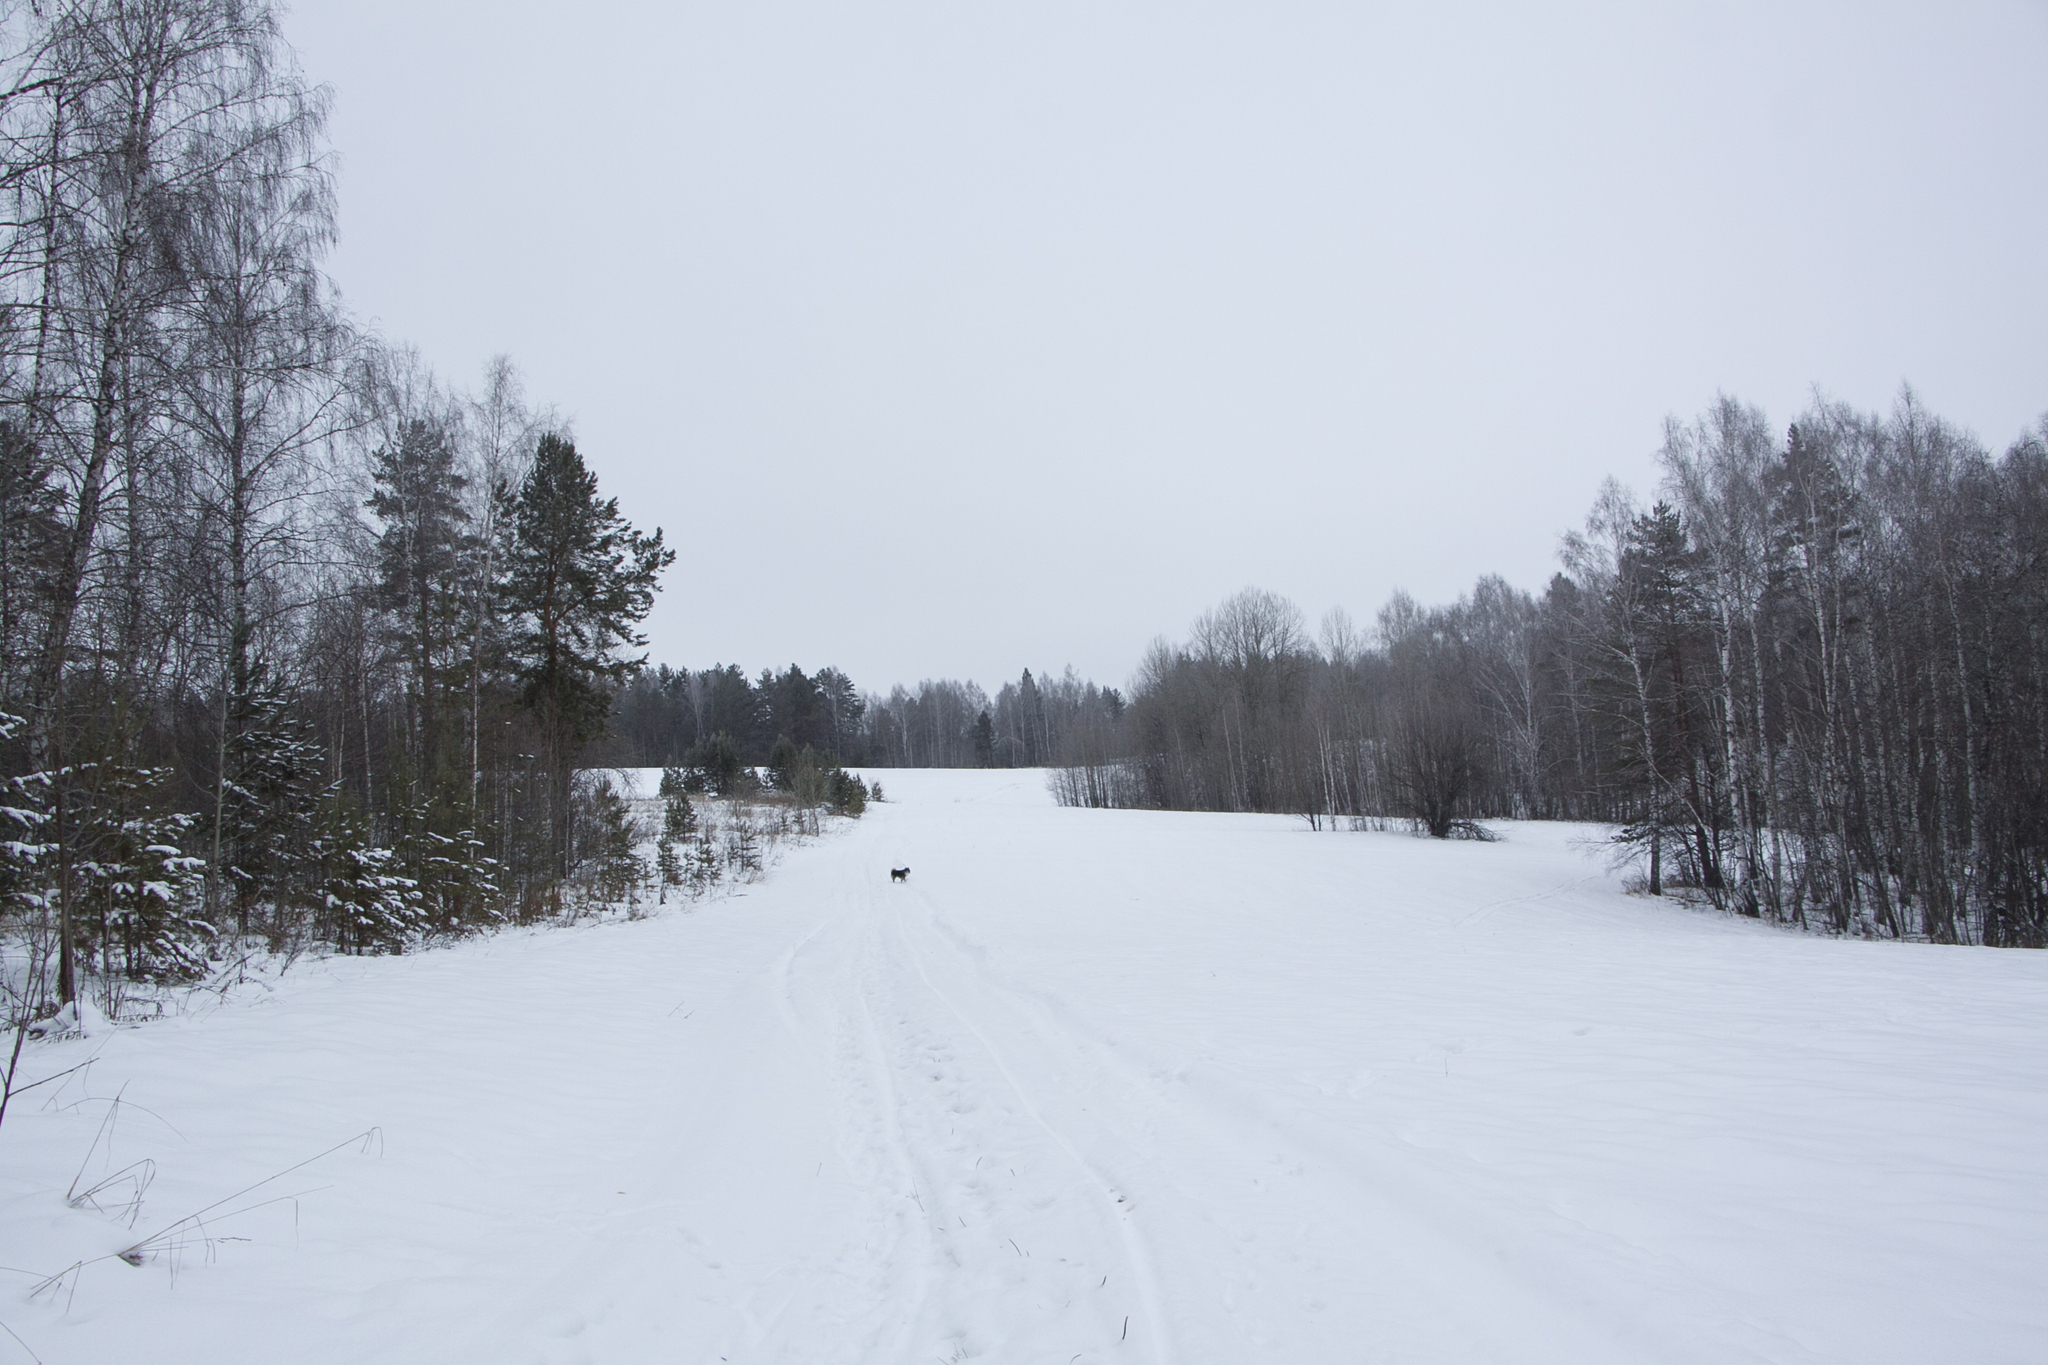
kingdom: Plantae
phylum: Tracheophyta
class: Magnoliopsida
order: Fagales
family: Betulaceae
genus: Betula
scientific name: Betula pendula
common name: Silver birch
